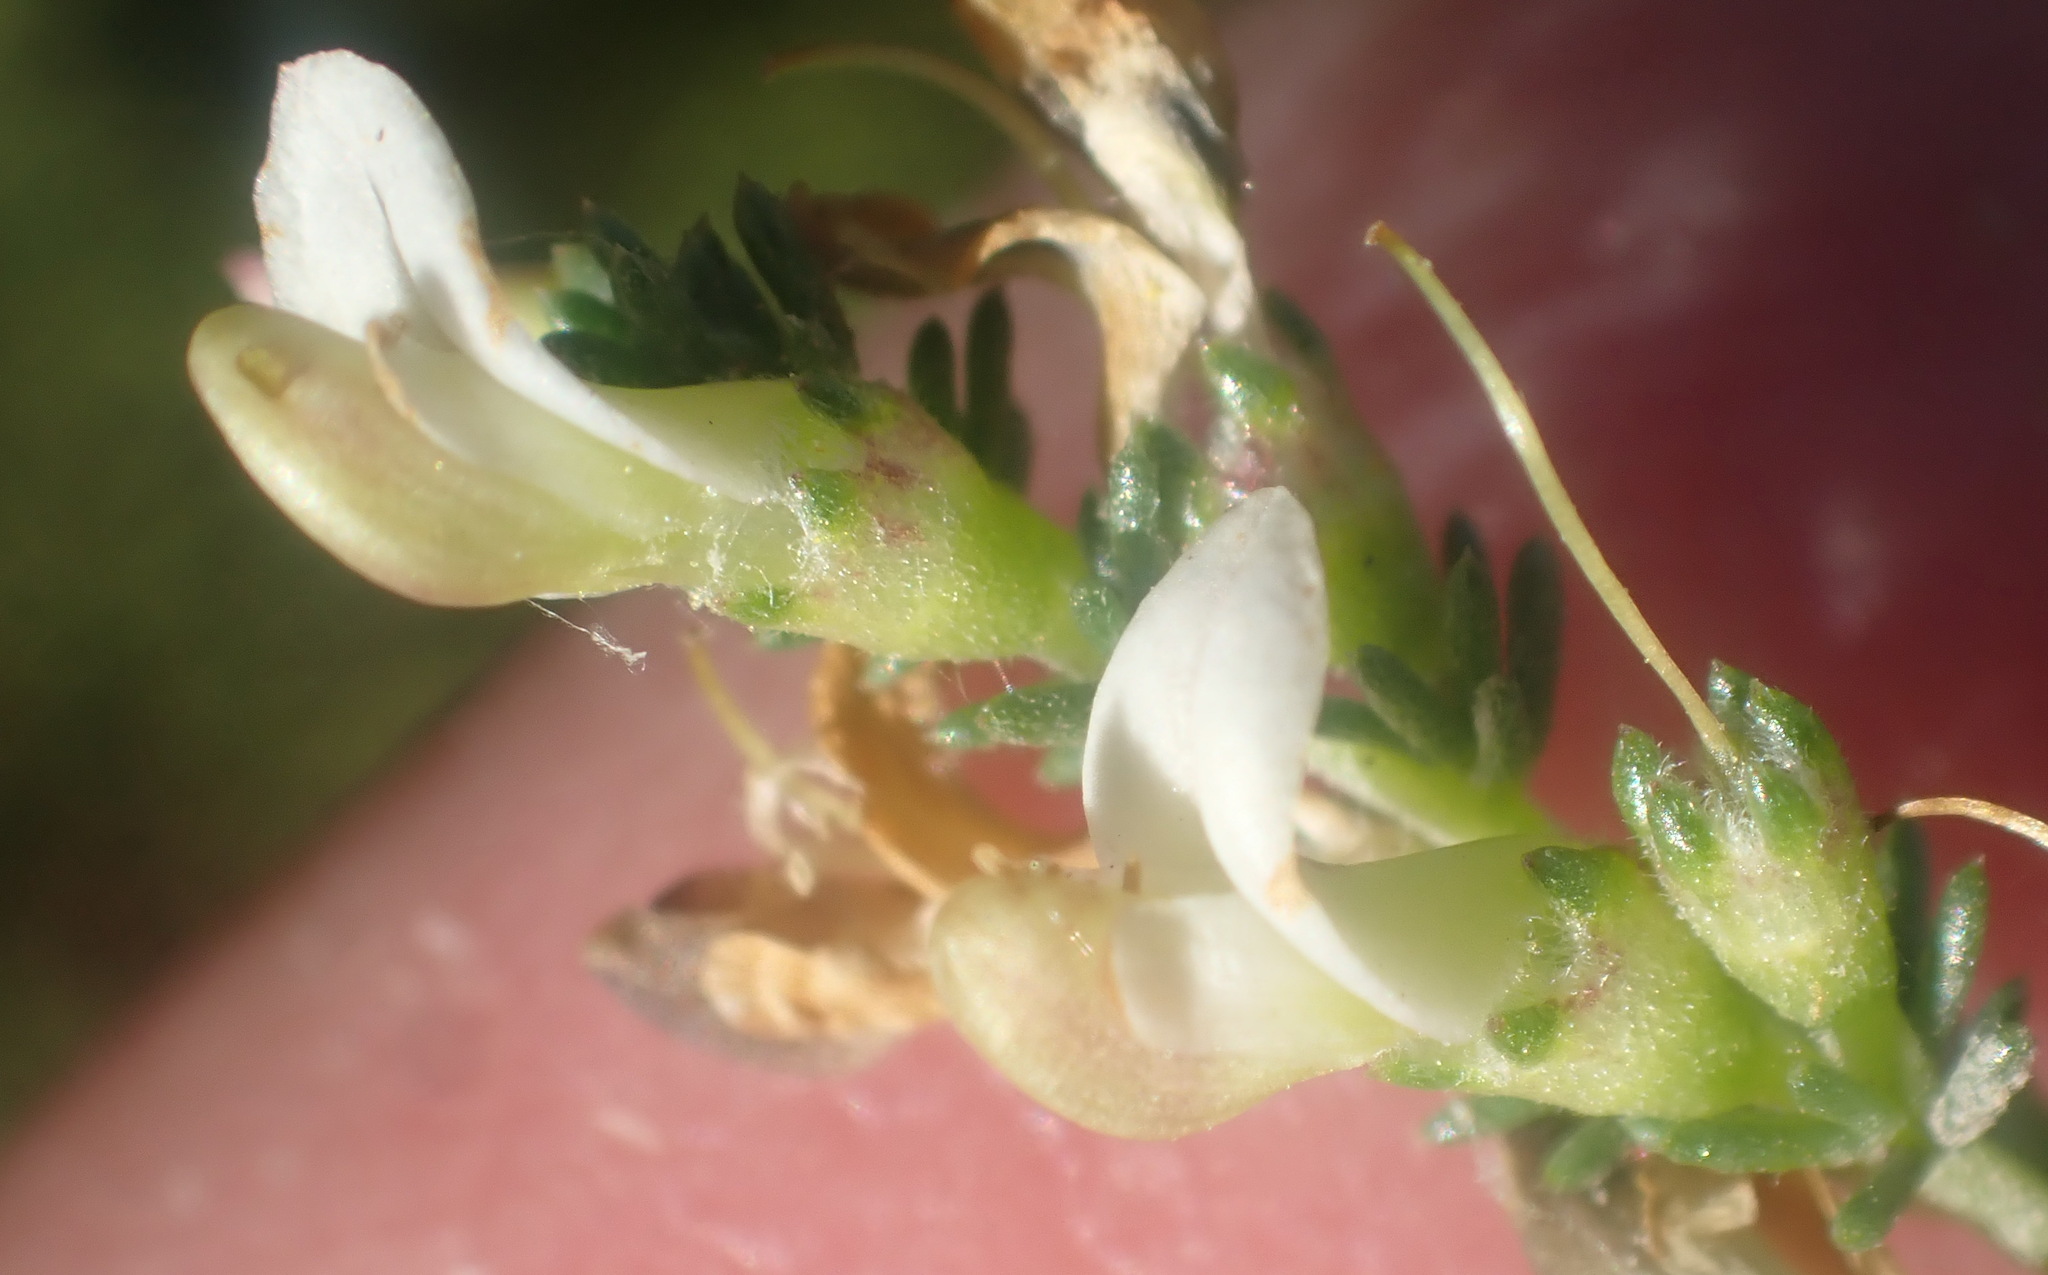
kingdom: Plantae
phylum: Tracheophyta
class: Magnoliopsida
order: Fabales
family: Fabaceae
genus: Aspalathus
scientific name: Aspalathus hispida
